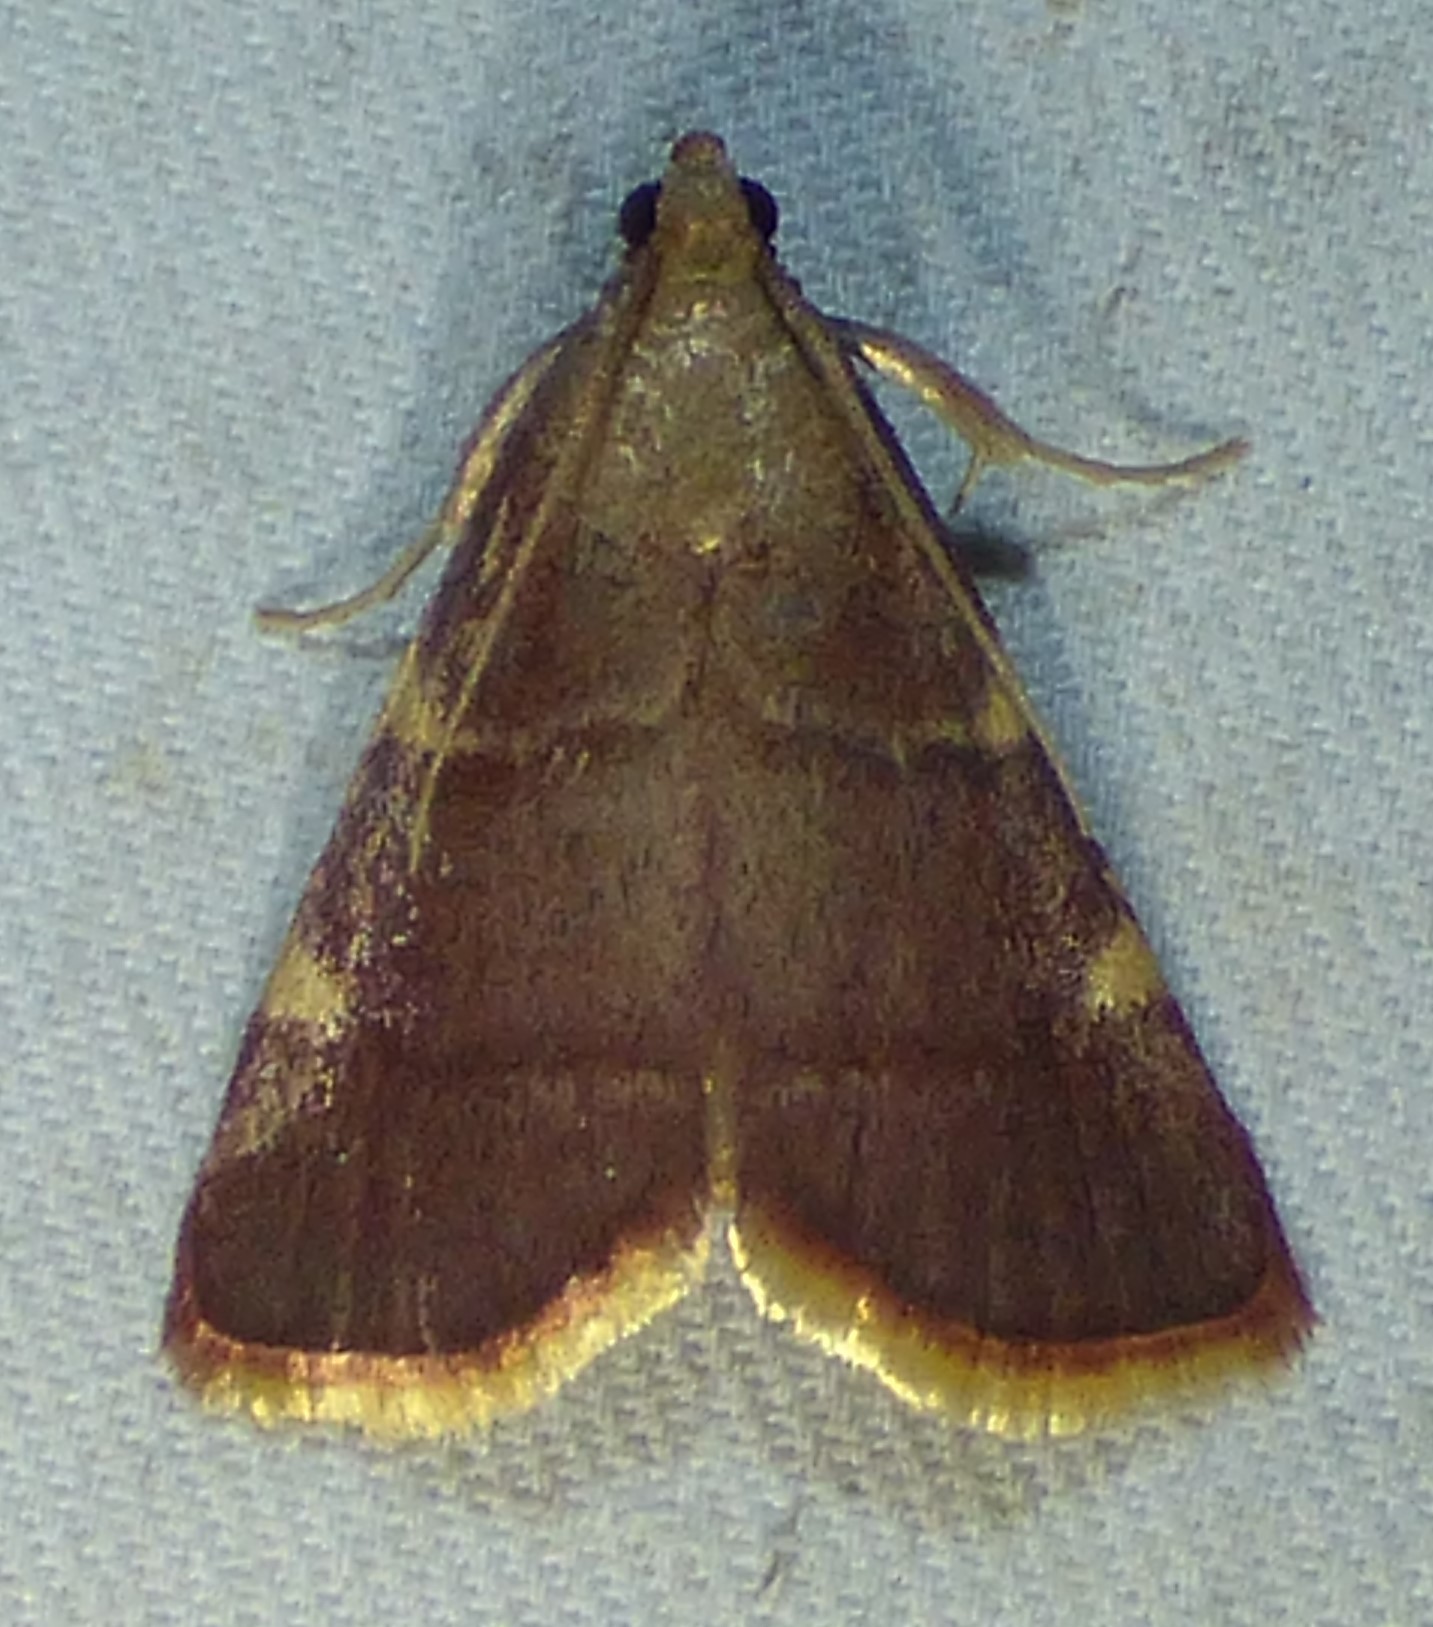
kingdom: Animalia
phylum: Arthropoda
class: Insecta
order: Lepidoptera
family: Pyralidae
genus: Hypsopygia
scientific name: Hypsopygia olinalis
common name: Yellow-fringed dolichomia moth
